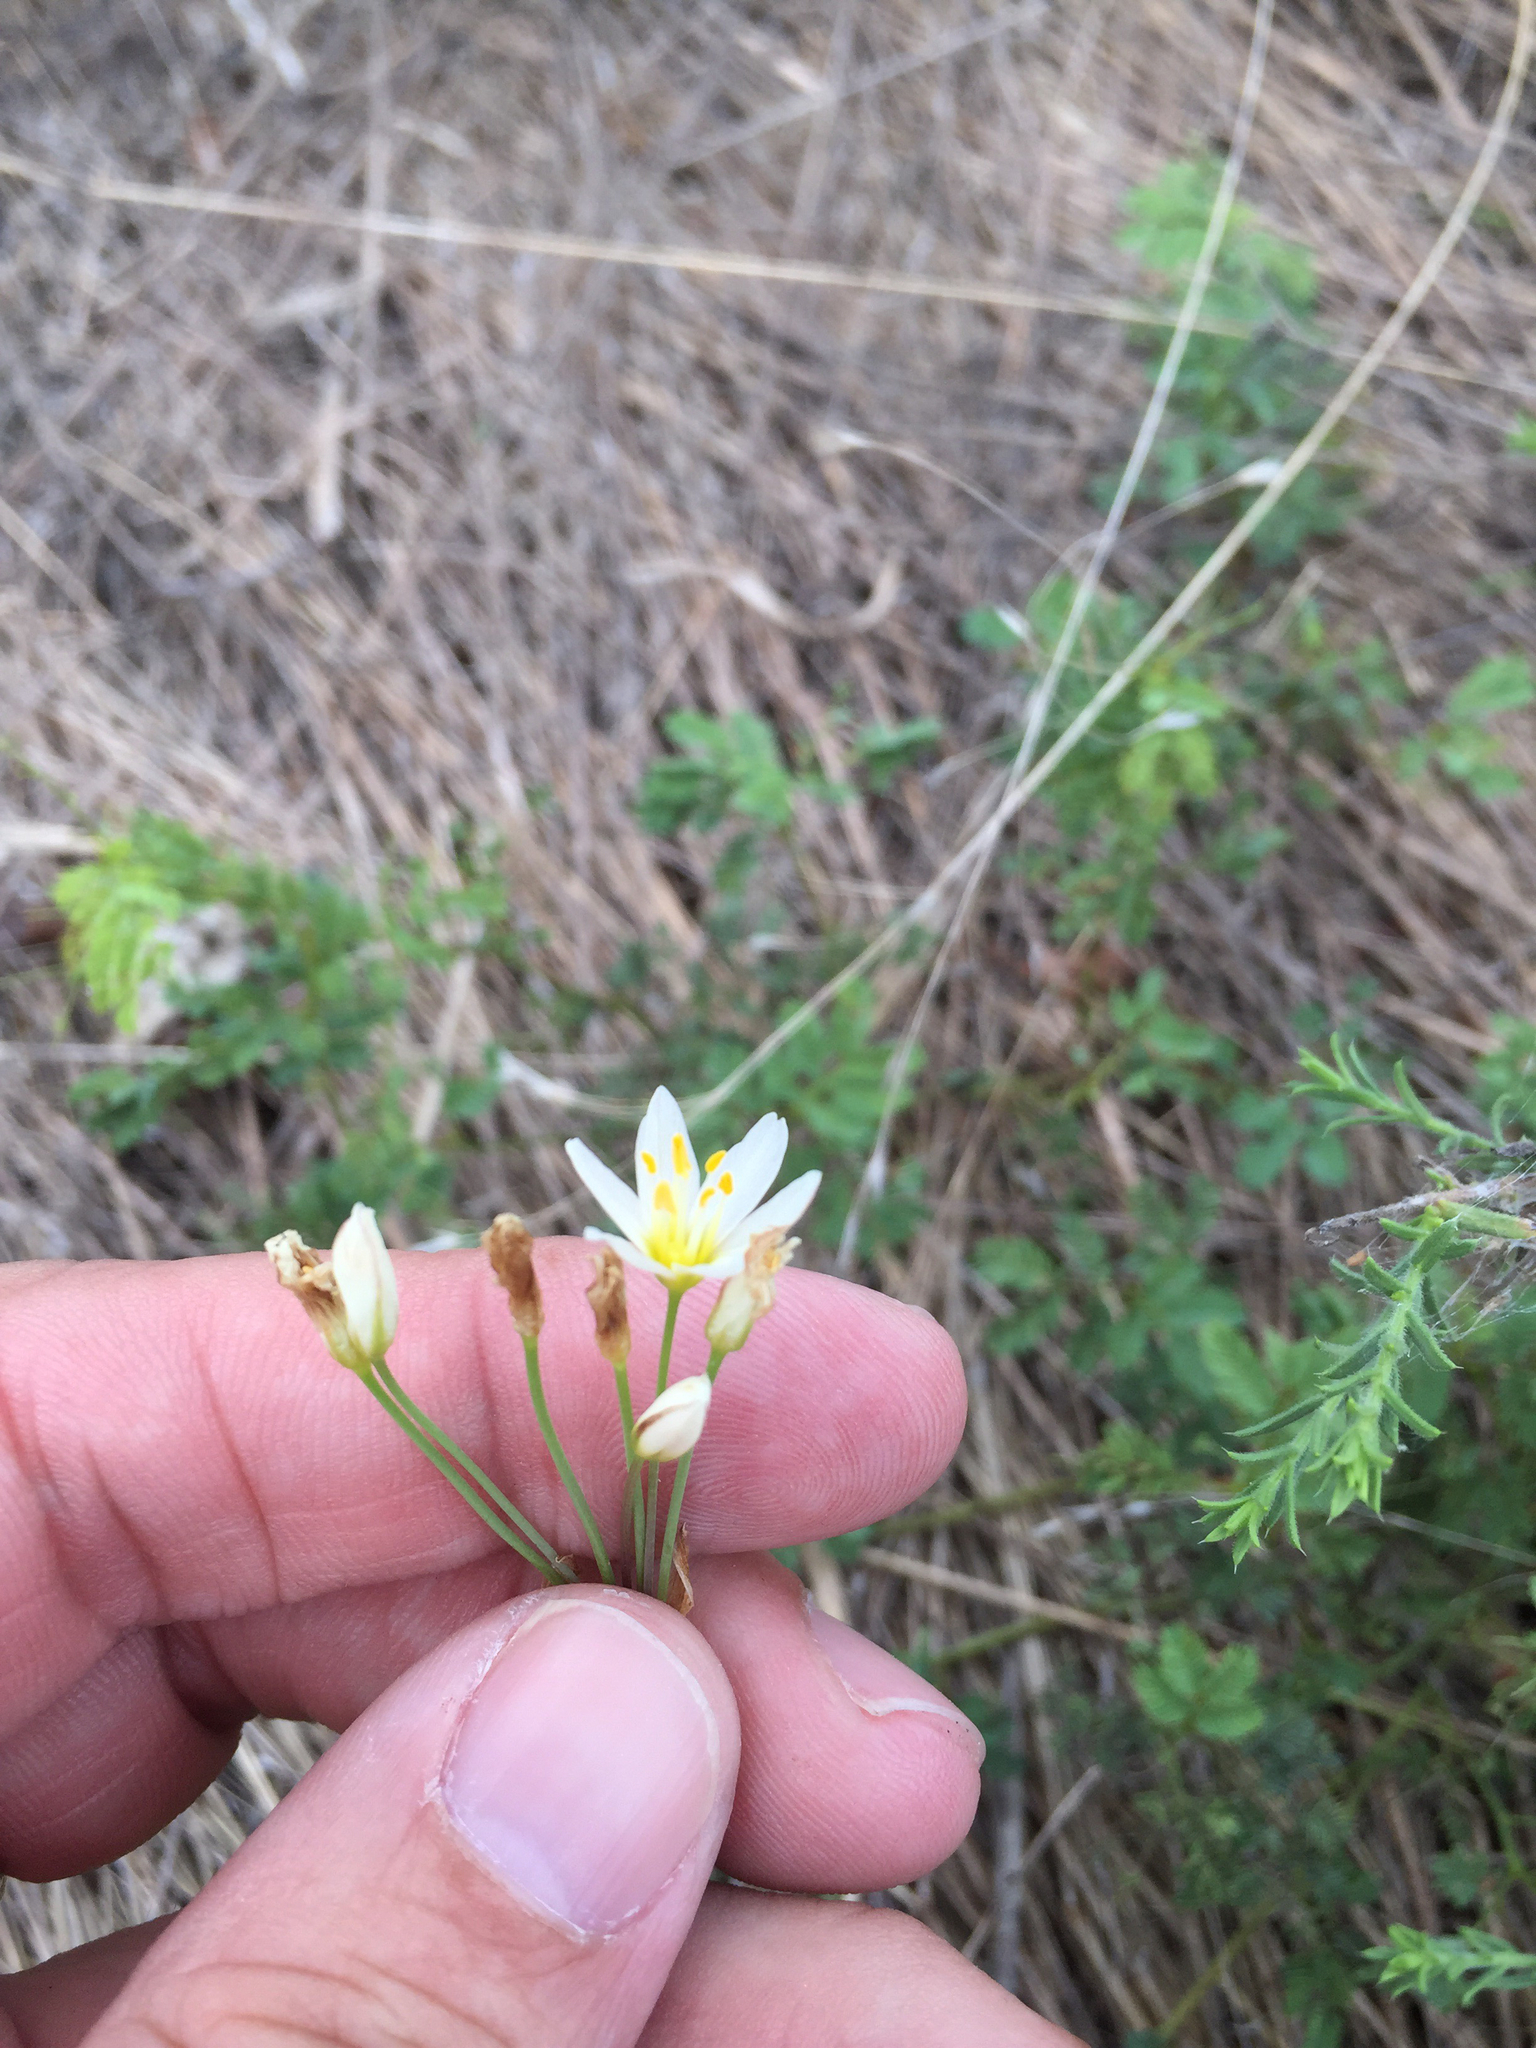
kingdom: Plantae
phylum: Tracheophyta
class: Liliopsida
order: Asparagales
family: Amaryllidaceae
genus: Nothoscordum
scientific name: Nothoscordum bivalve
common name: Crow-poison
